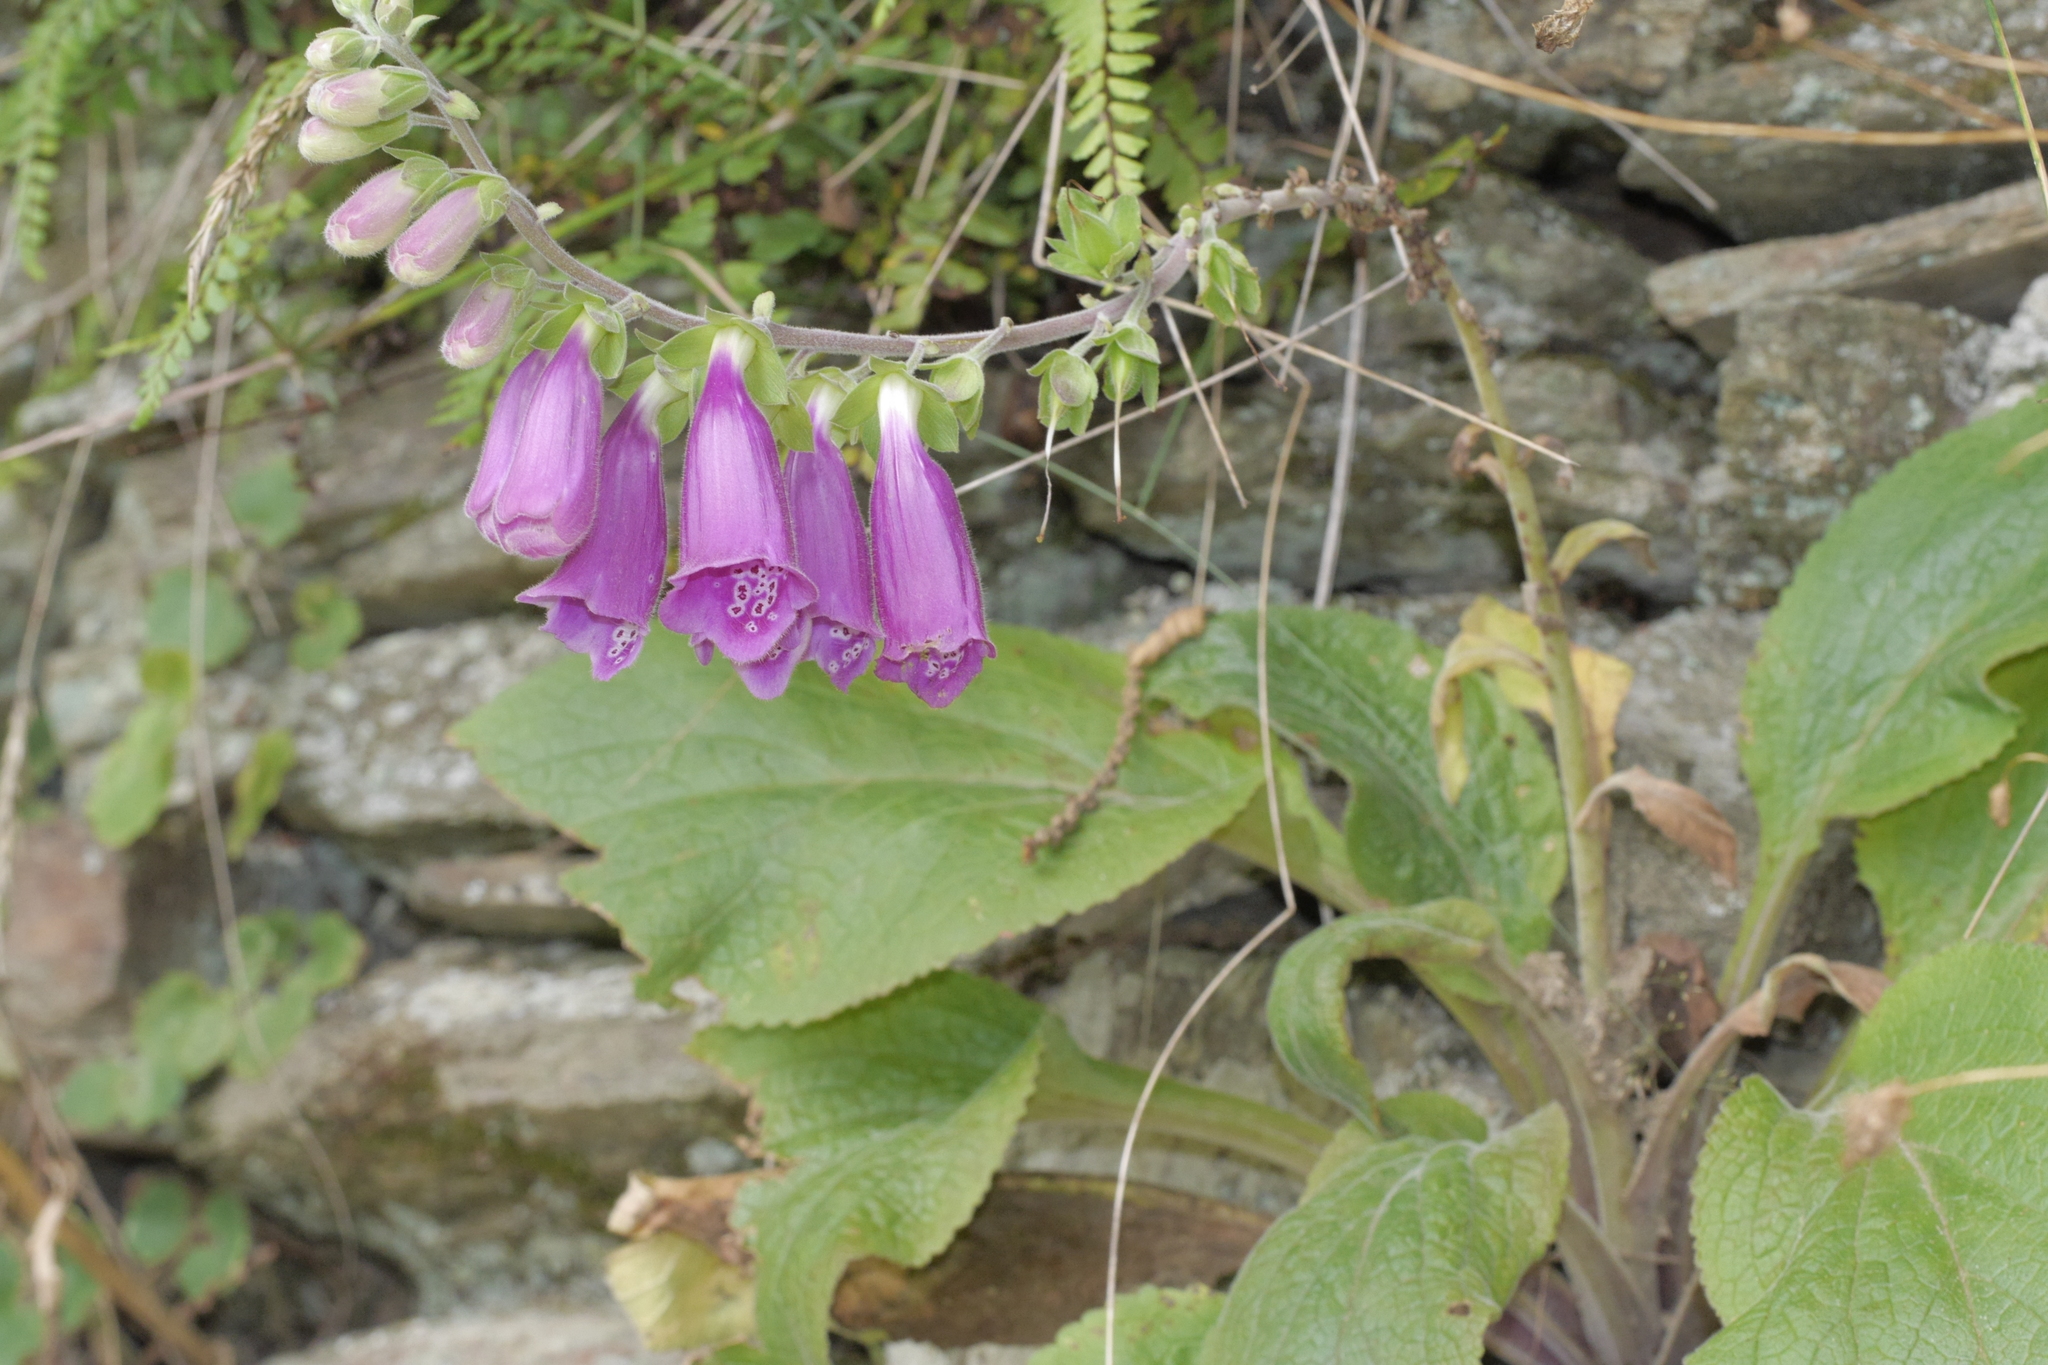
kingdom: Plantae
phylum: Tracheophyta
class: Magnoliopsida
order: Lamiales
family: Plantaginaceae
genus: Digitalis
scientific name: Digitalis purpurea
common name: Foxglove
